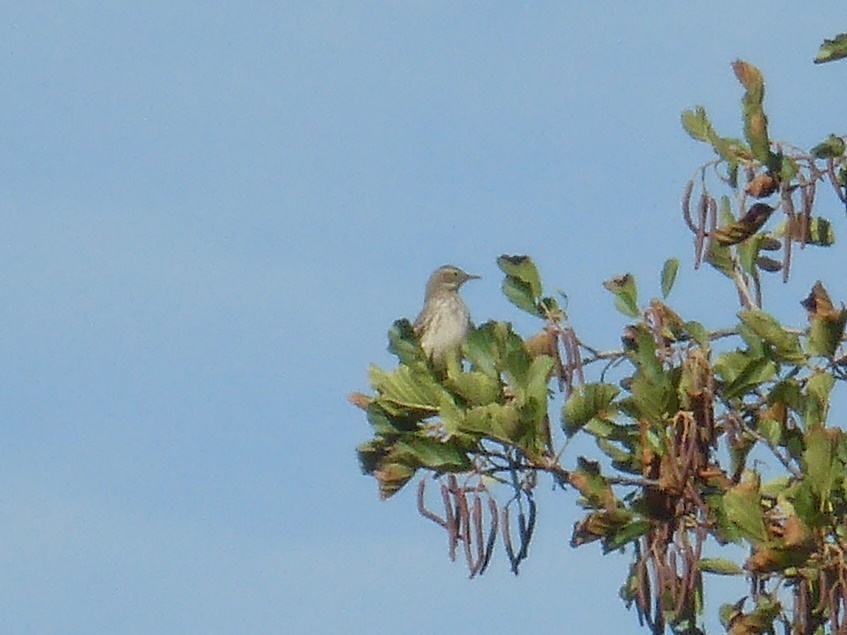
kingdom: Animalia
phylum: Chordata
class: Aves
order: Passeriformes
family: Motacillidae
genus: Anthus
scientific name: Anthus spinoletta
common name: Water pipit
